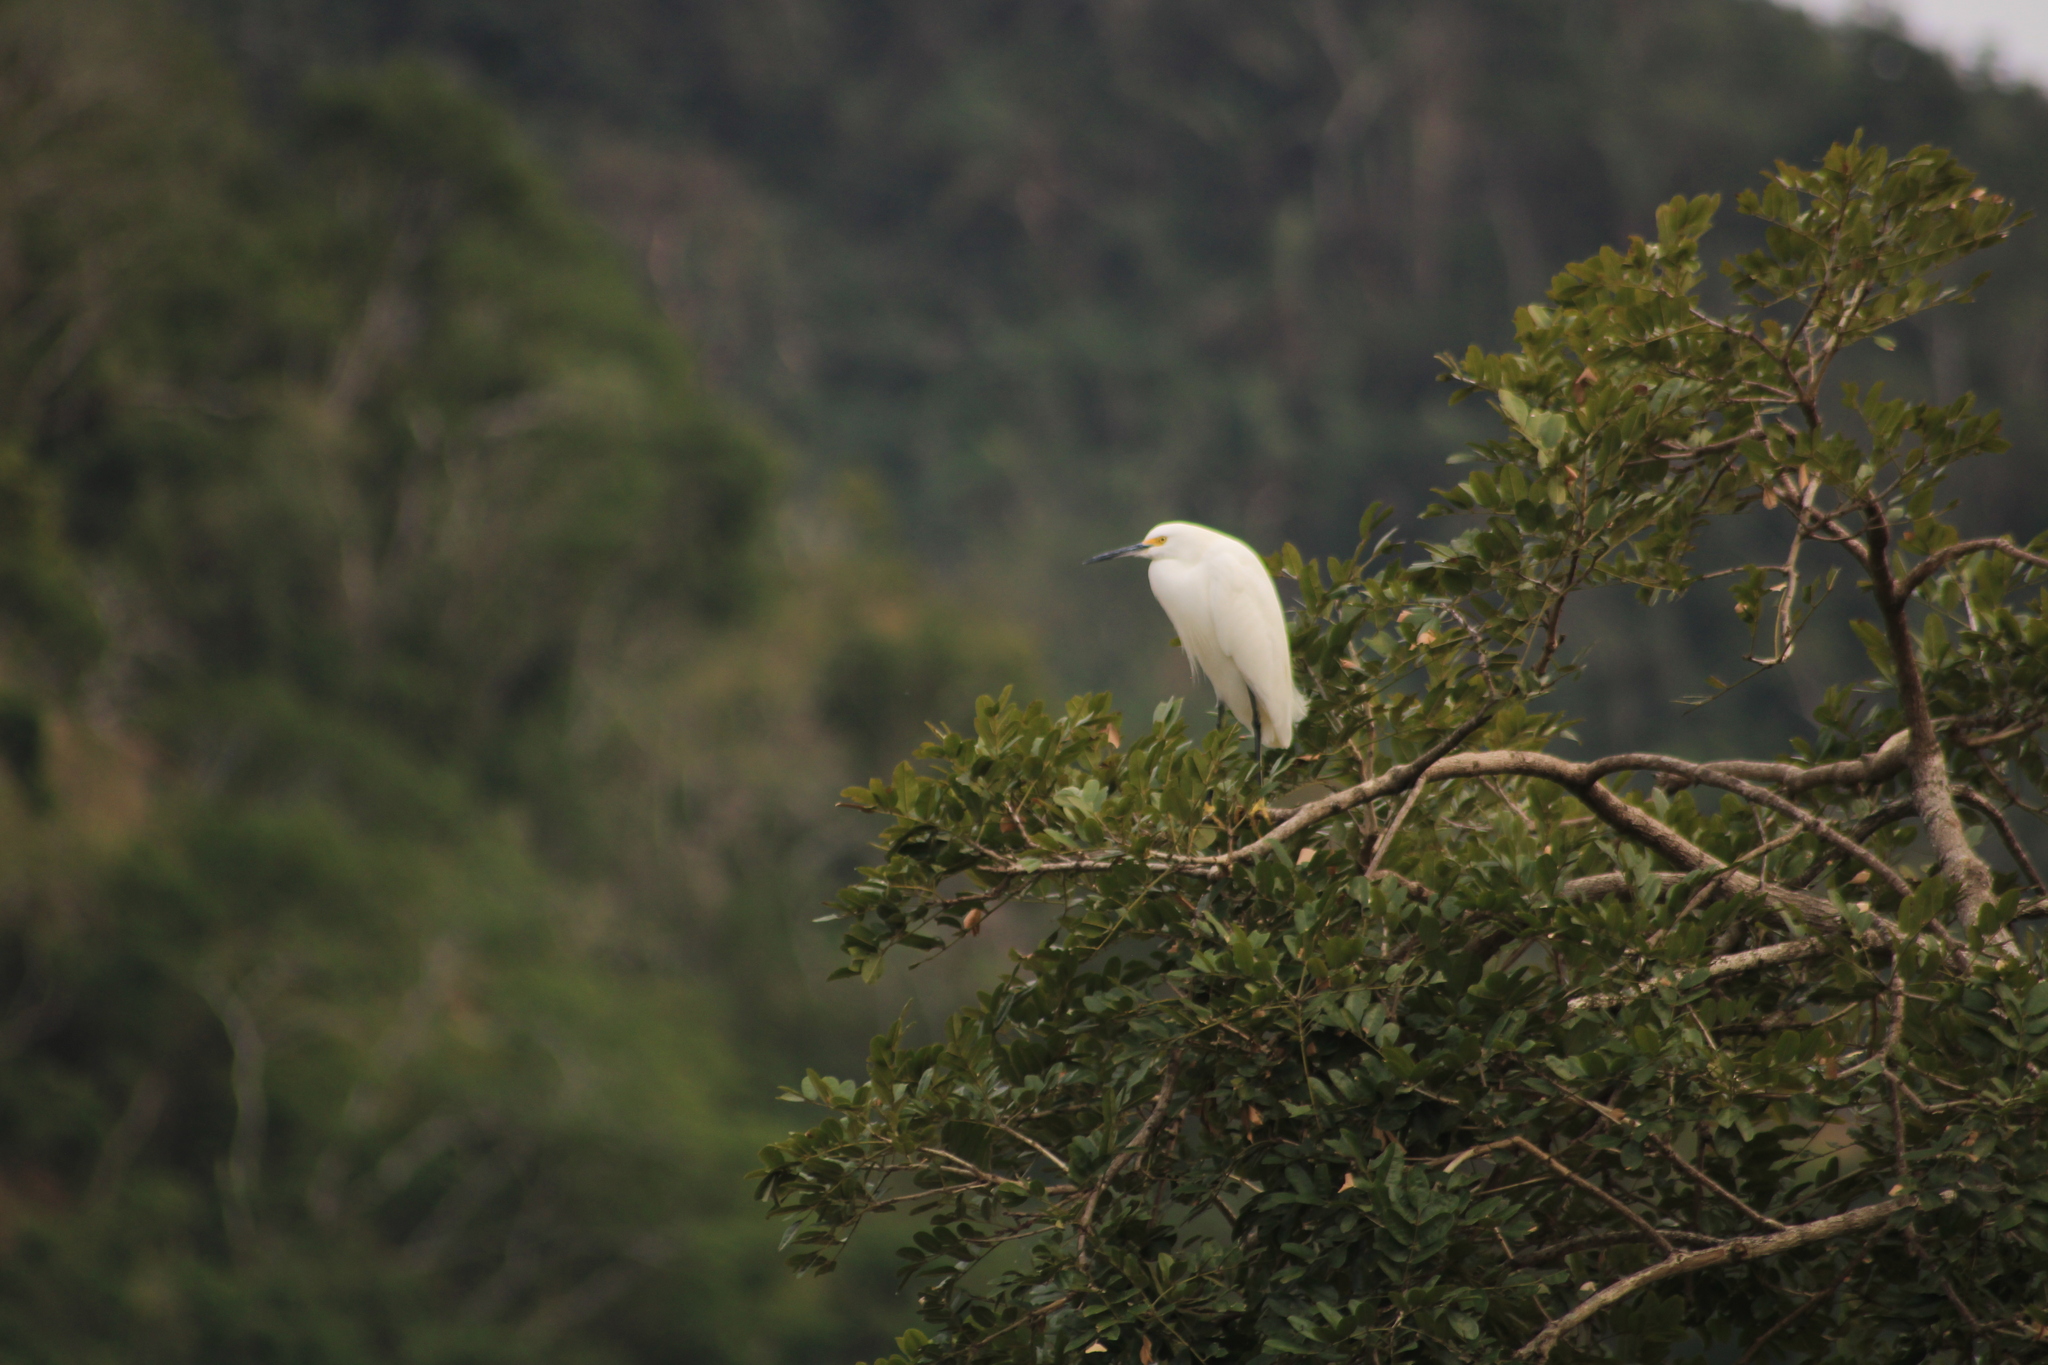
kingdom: Animalia
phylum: Chordata
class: Aves
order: Pelecaniformes
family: Ardeidae
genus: Egretta
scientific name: Egretta thula
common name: Snowy egret
